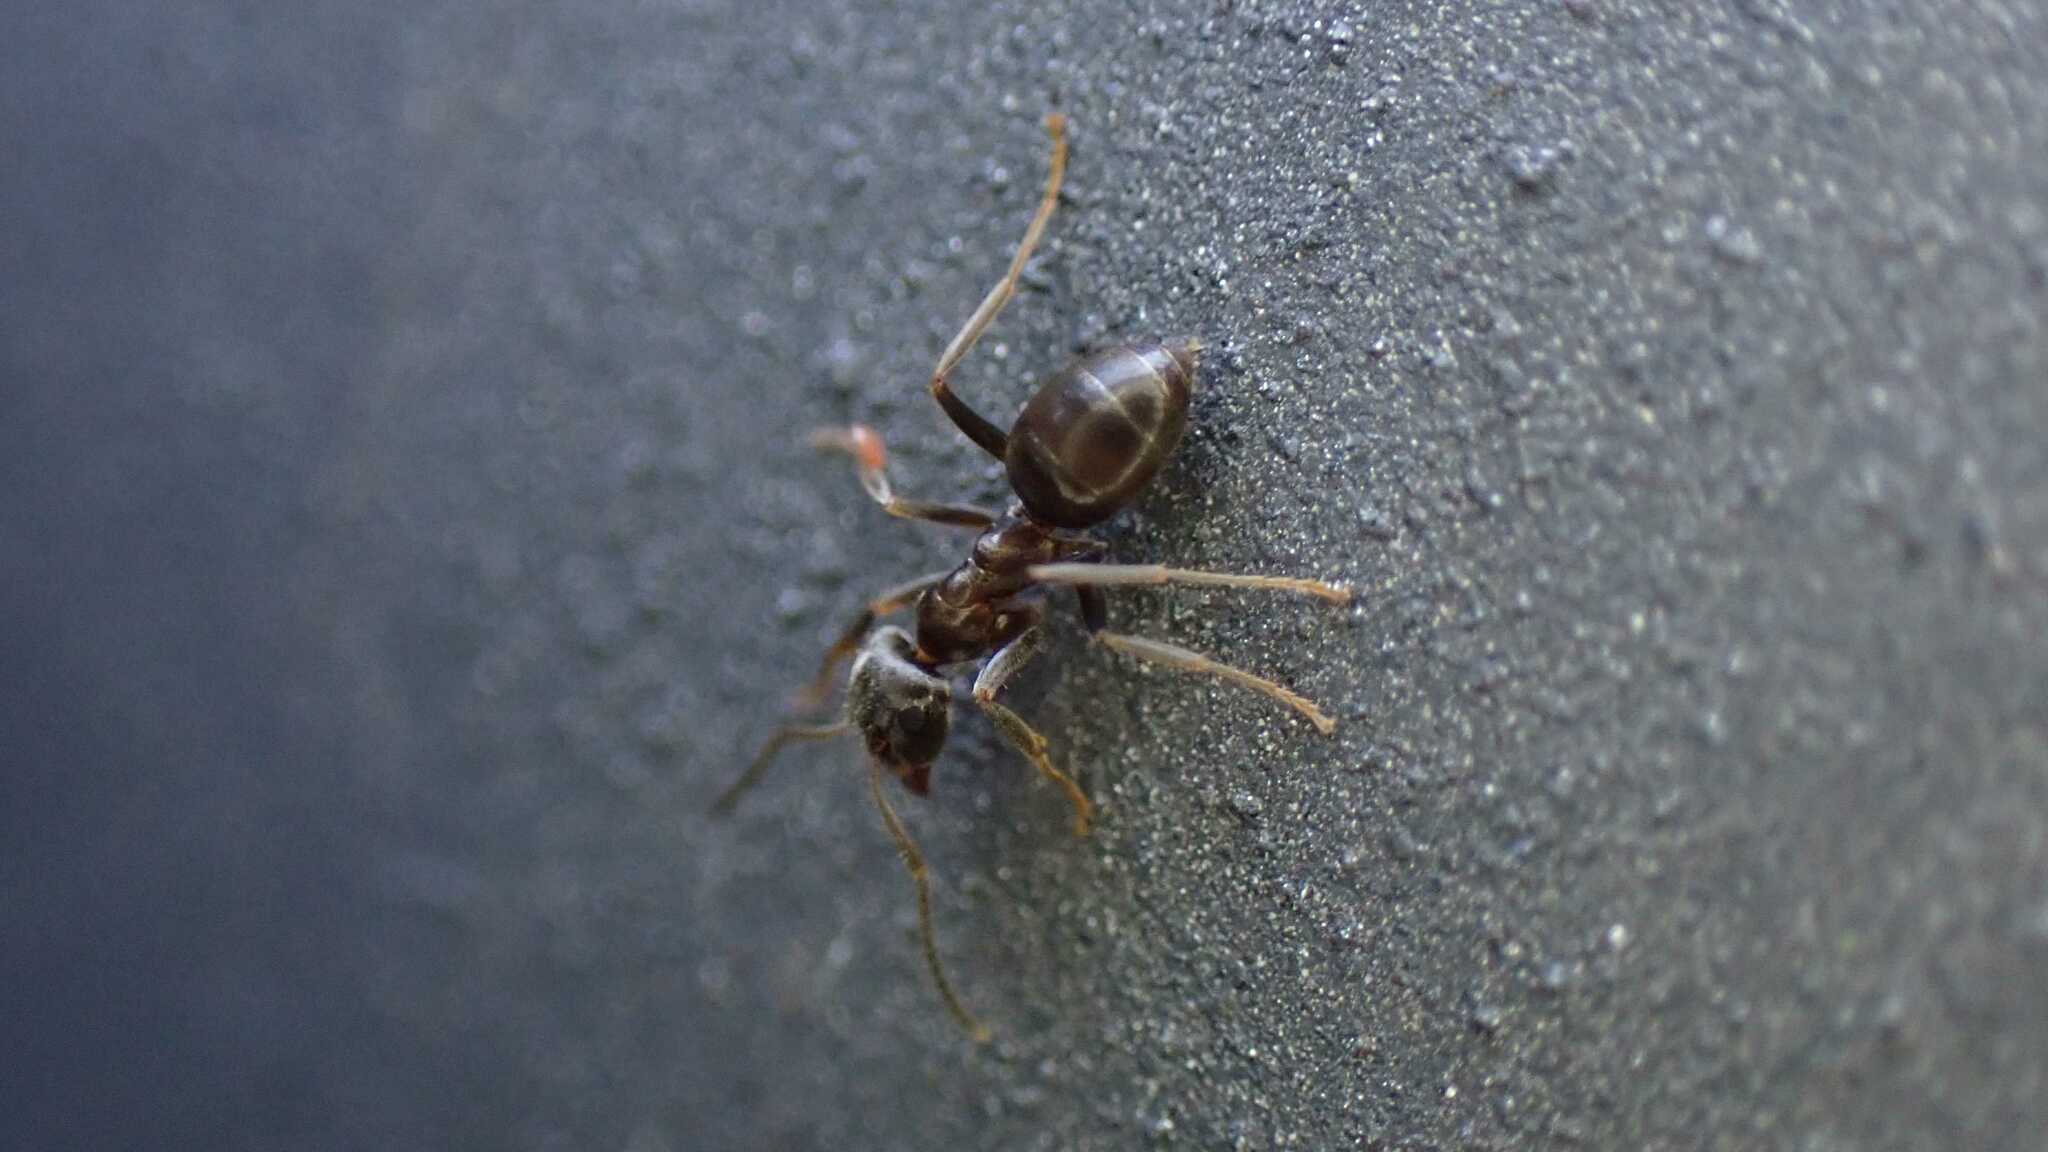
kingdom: Animalia
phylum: Arthropoda
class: Insecta
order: Hymenoptera
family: Formicidae
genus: Lasius
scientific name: Lasius
